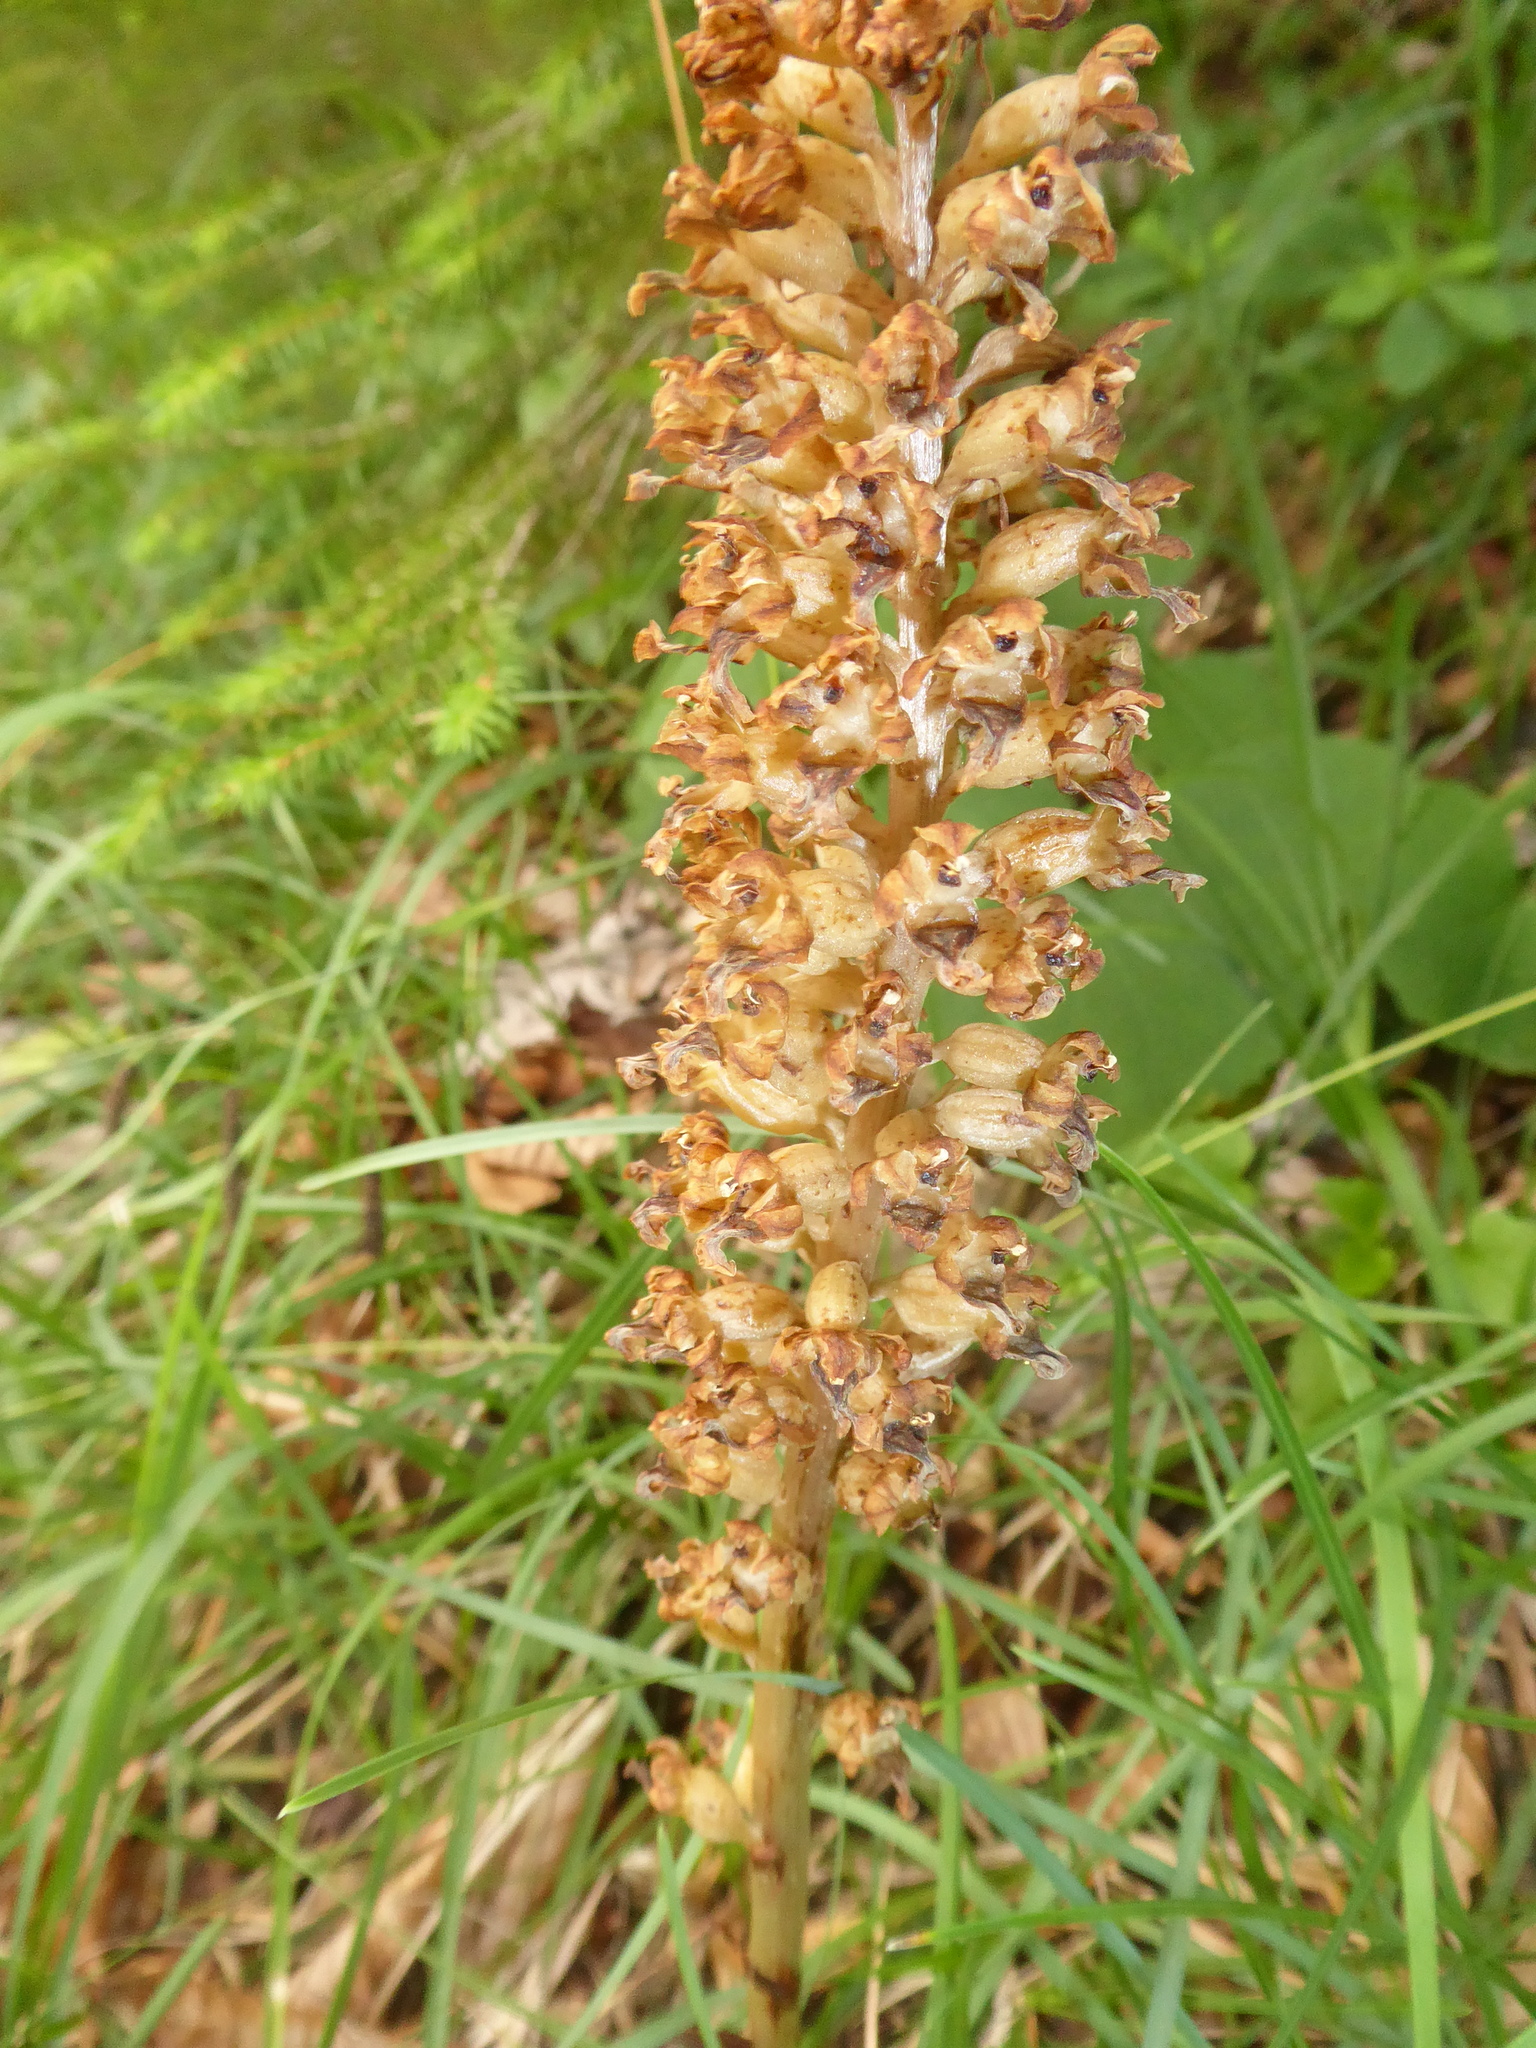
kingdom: Plantae
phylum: Tracheophyta
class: Liliopsida
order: Asparagales
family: Orchidaceae
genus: Neottia
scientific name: Neottia nidus-avis
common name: Bird's-nest orchid
